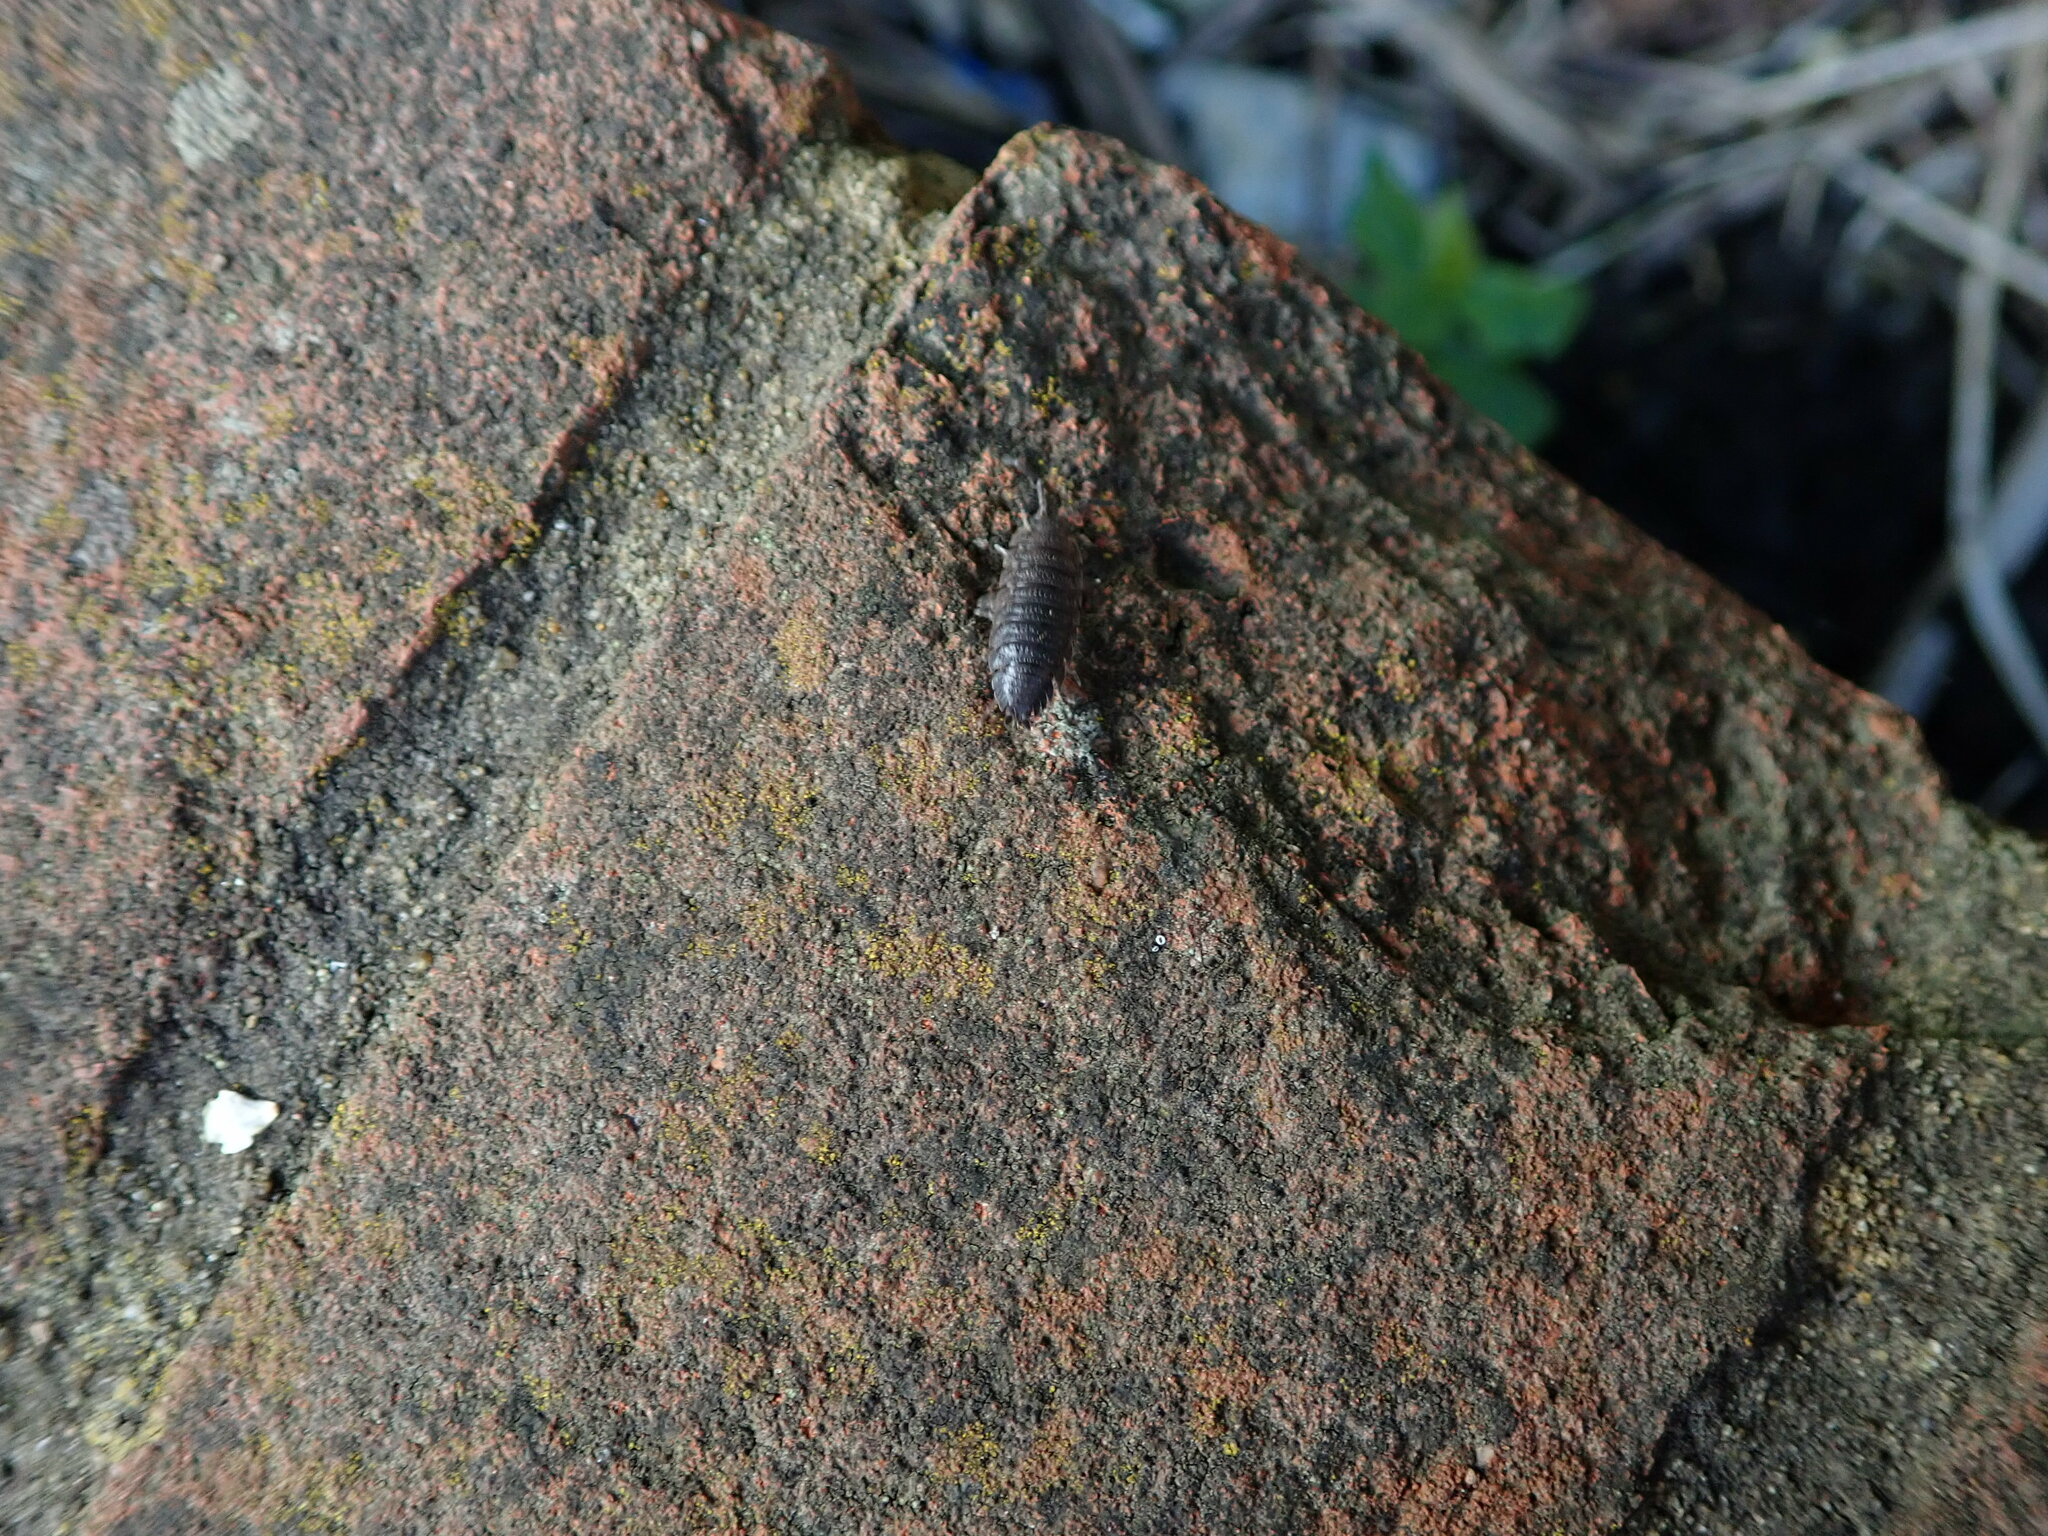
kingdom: Animalia
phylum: Arthropoda
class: Malacostraca
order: Isopoda
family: Porcellionidae
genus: Porcellio
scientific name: Porcellio scaber
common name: Common rough woodlouse
